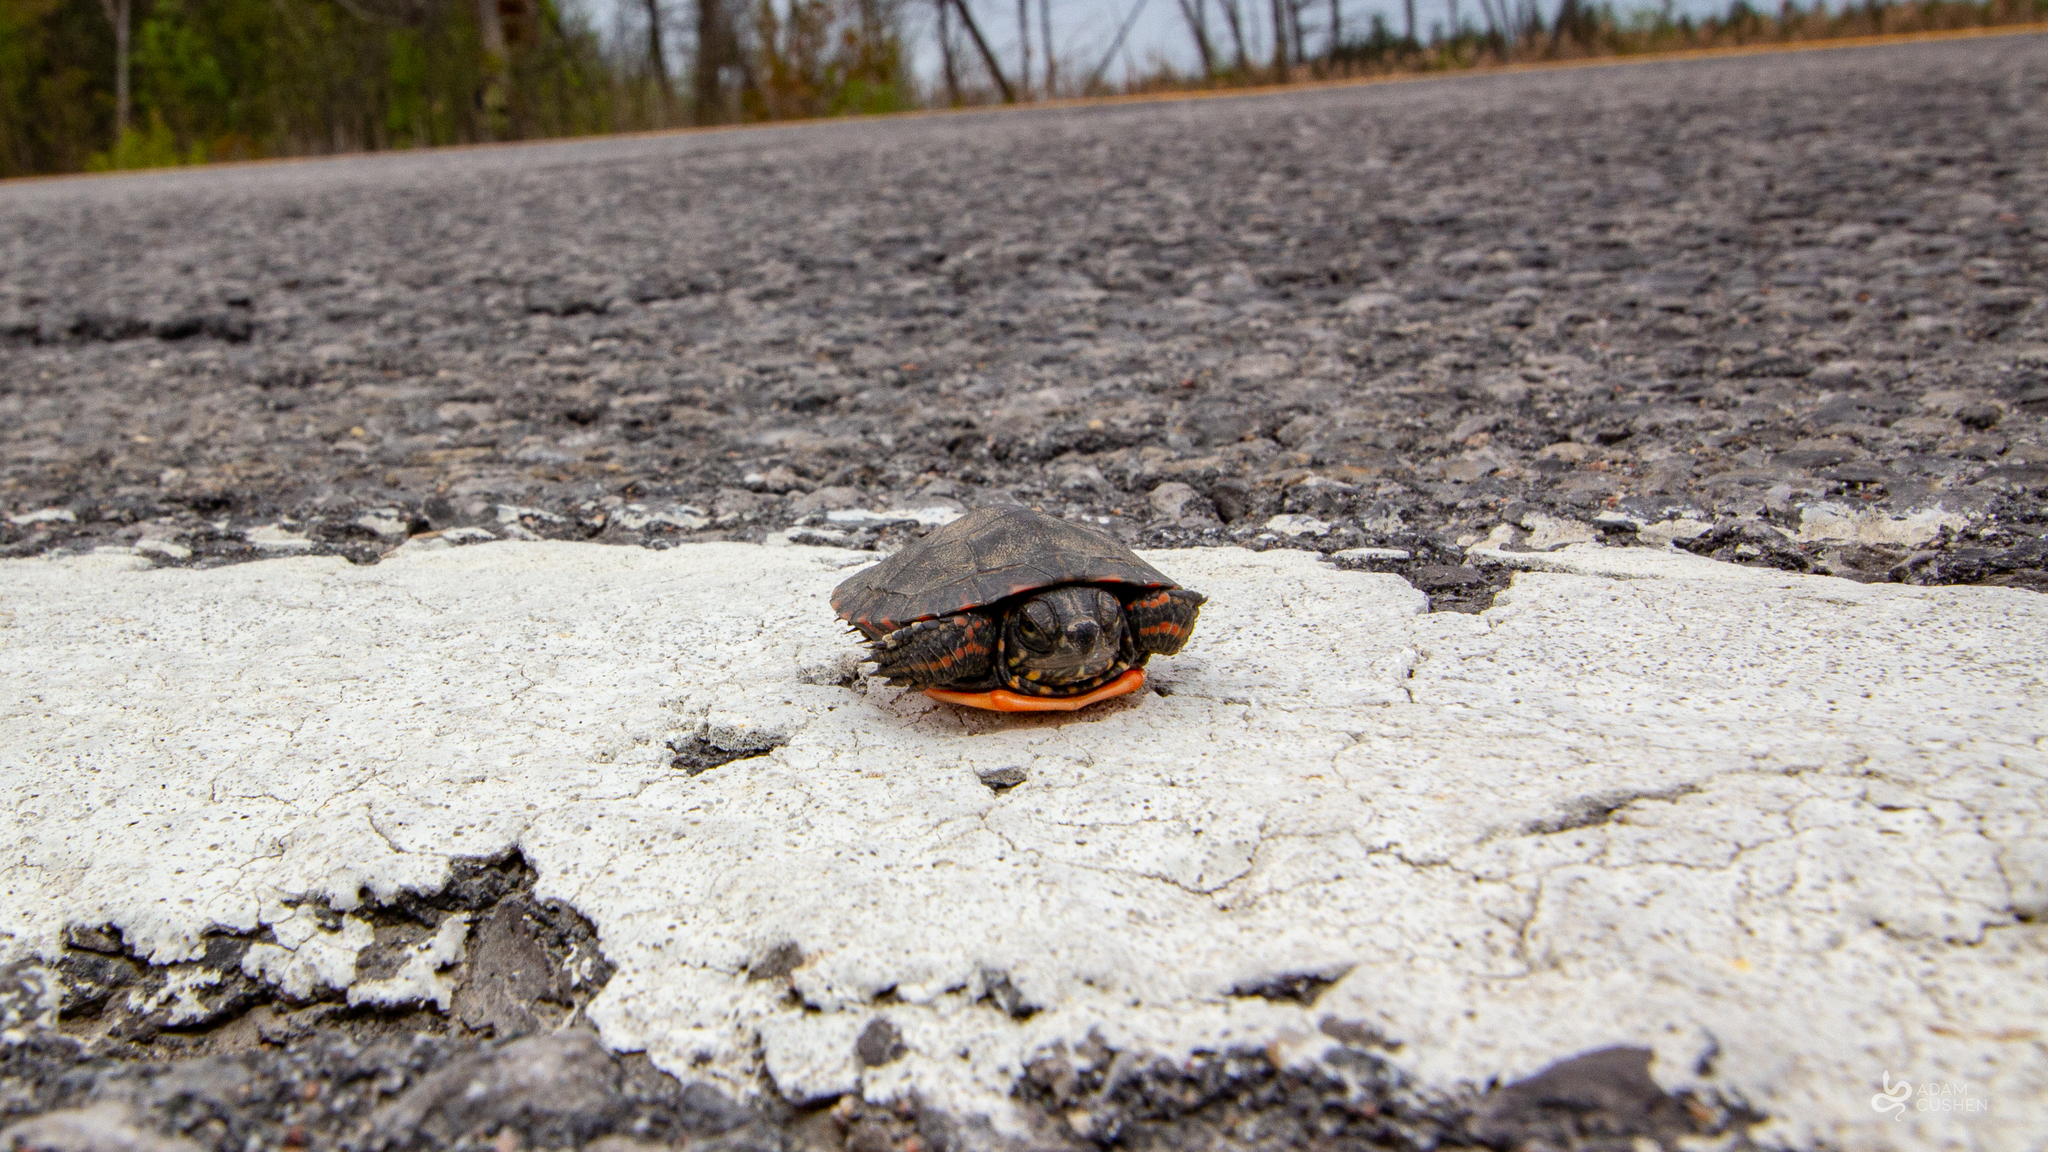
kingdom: Animalia
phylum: Chordata
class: Testudines
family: Emydidae
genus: Chrysemys
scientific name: Chrysemys picta
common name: Painted turtle
